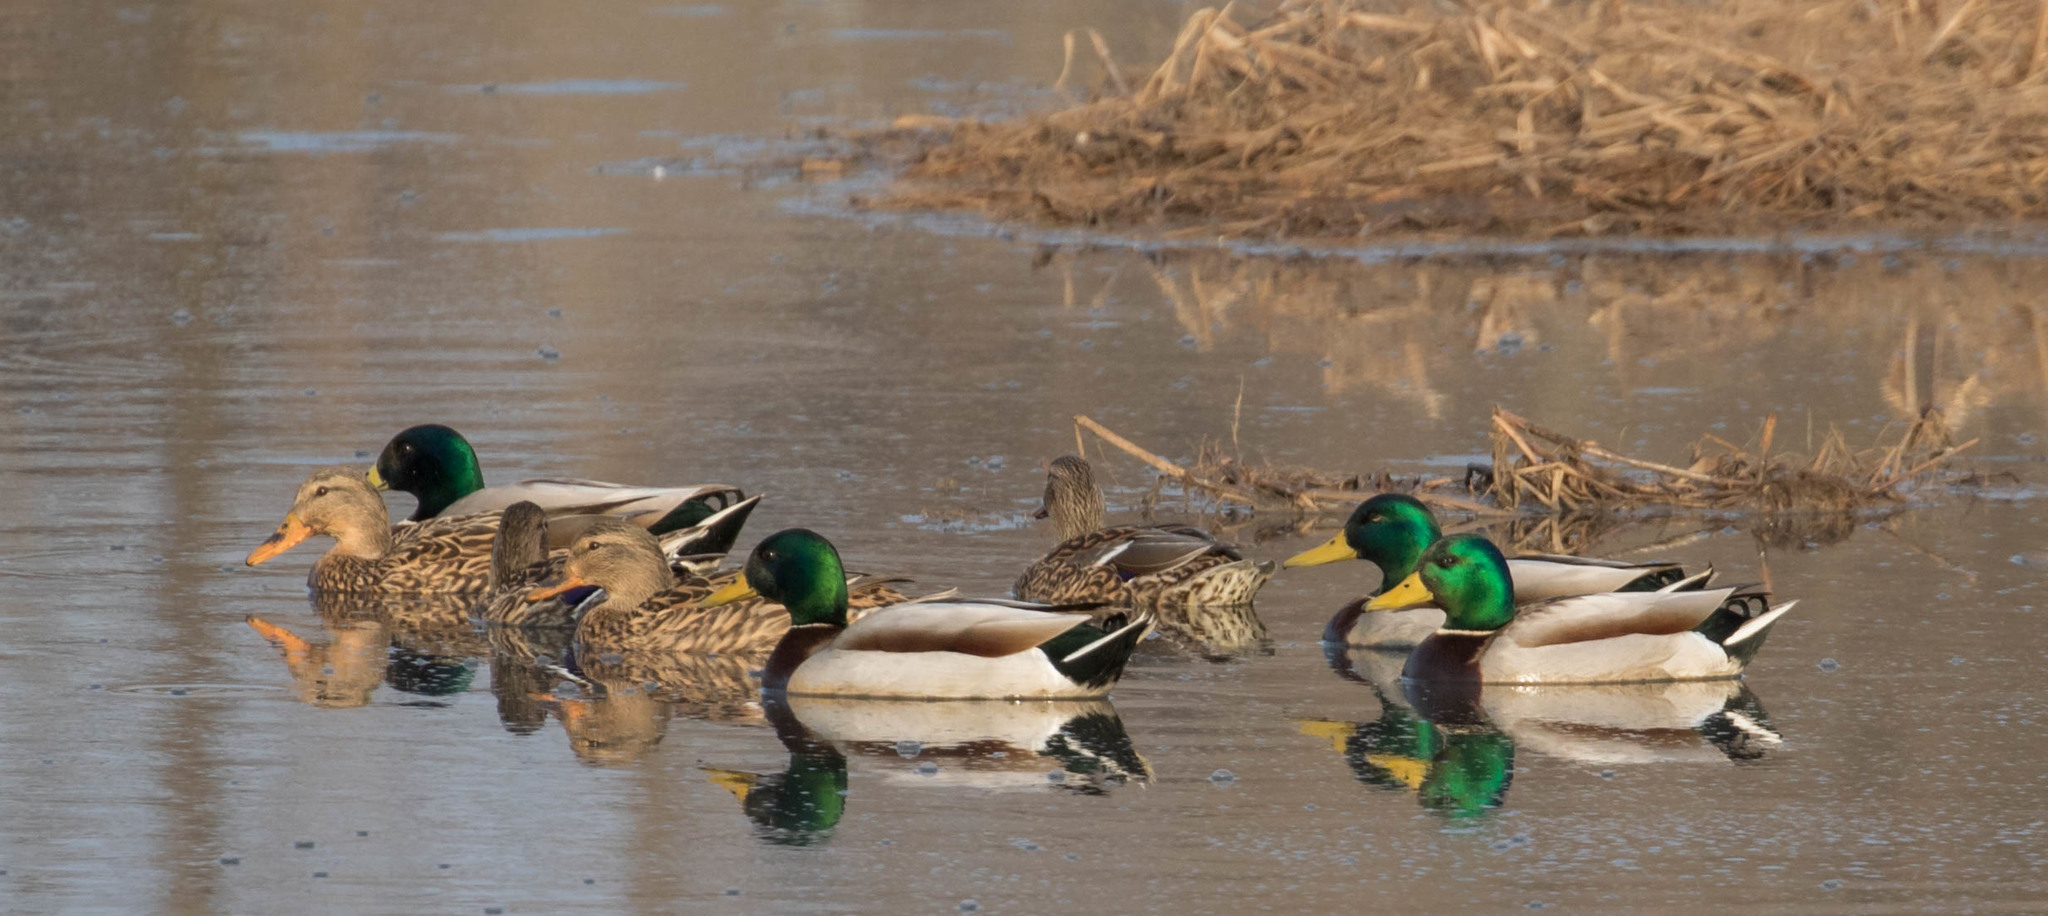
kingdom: Animalia
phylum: Chordata
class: Aves
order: Anseriformes
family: Anatidae
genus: Anas
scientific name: Anas platyrhynchos
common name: Mallard
